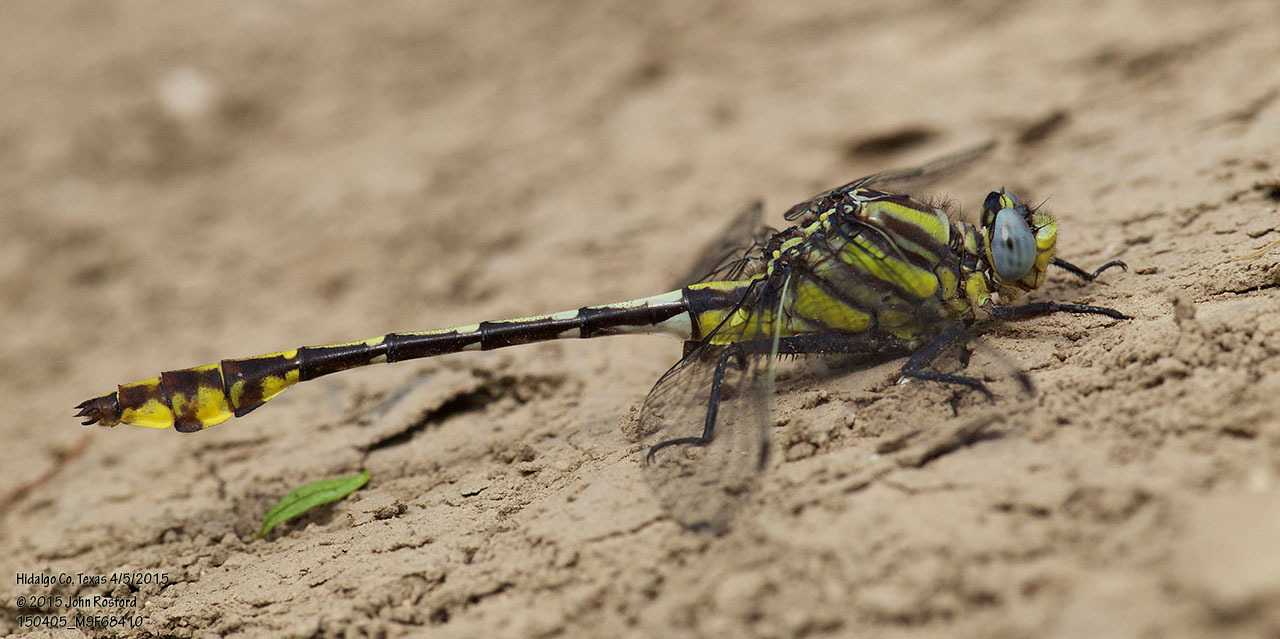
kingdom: Animalia
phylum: Arthropoda
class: Insecta
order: Odonata
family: Gomphidae
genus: Gomphurus
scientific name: Gomphurus gonzalezi
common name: Tamaulipan clubtail
